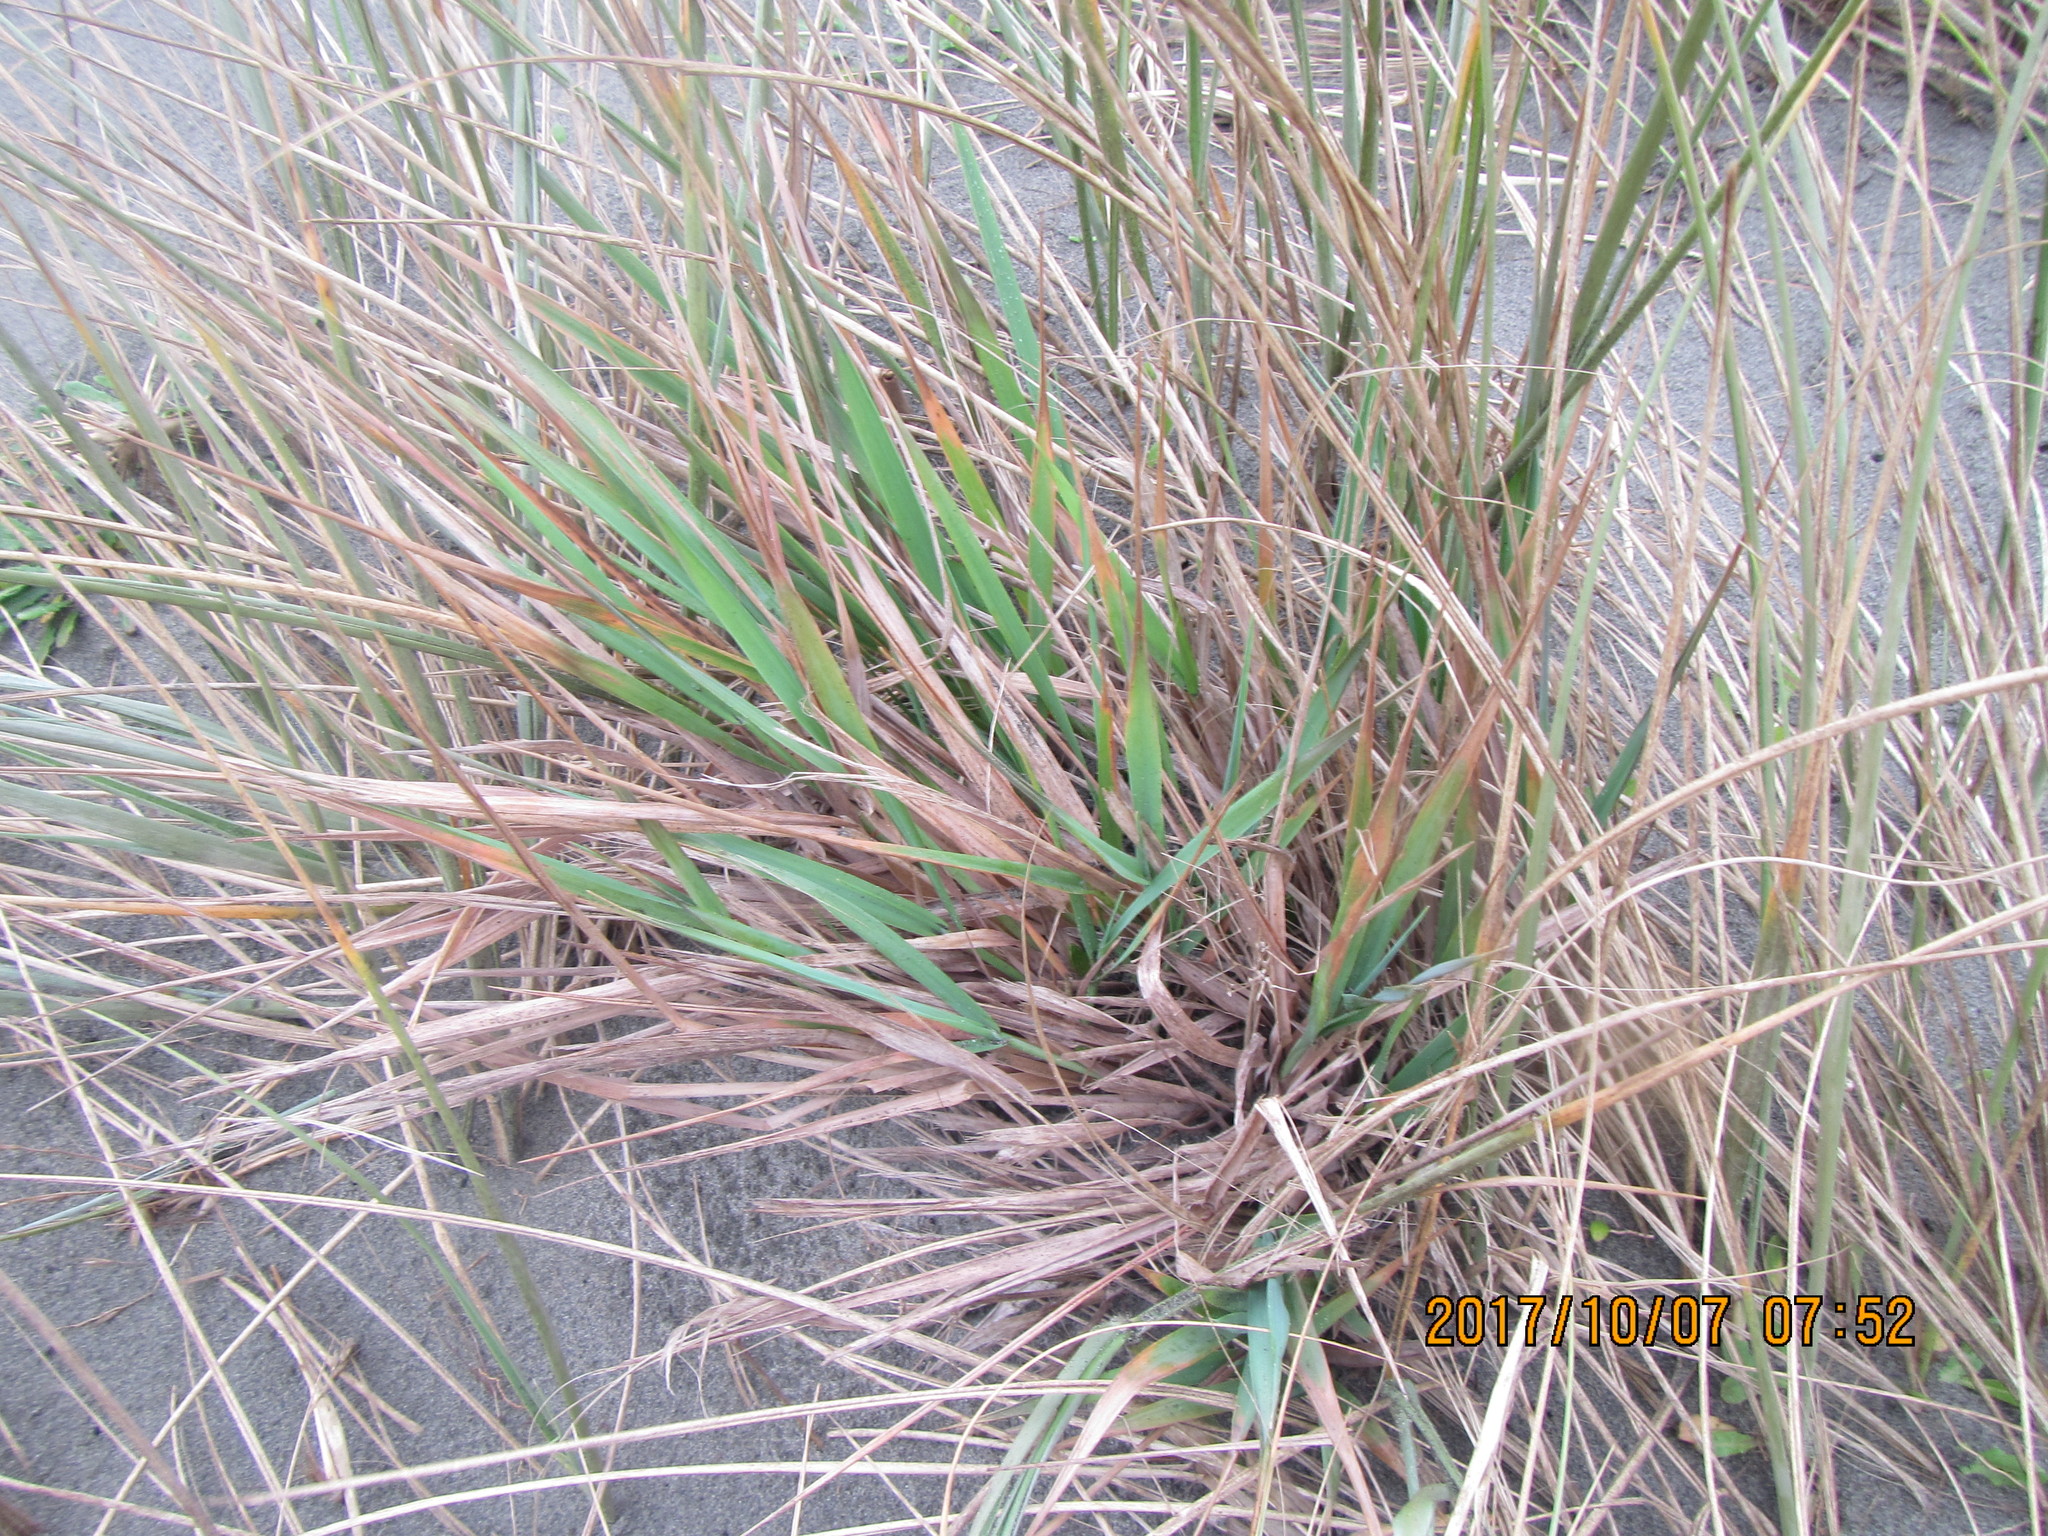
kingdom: Plantae
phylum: Tracheophyta
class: Liliopsida
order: Poales
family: Poaceae
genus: Lachnagrostis
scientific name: Lachnagrostis billardierei
